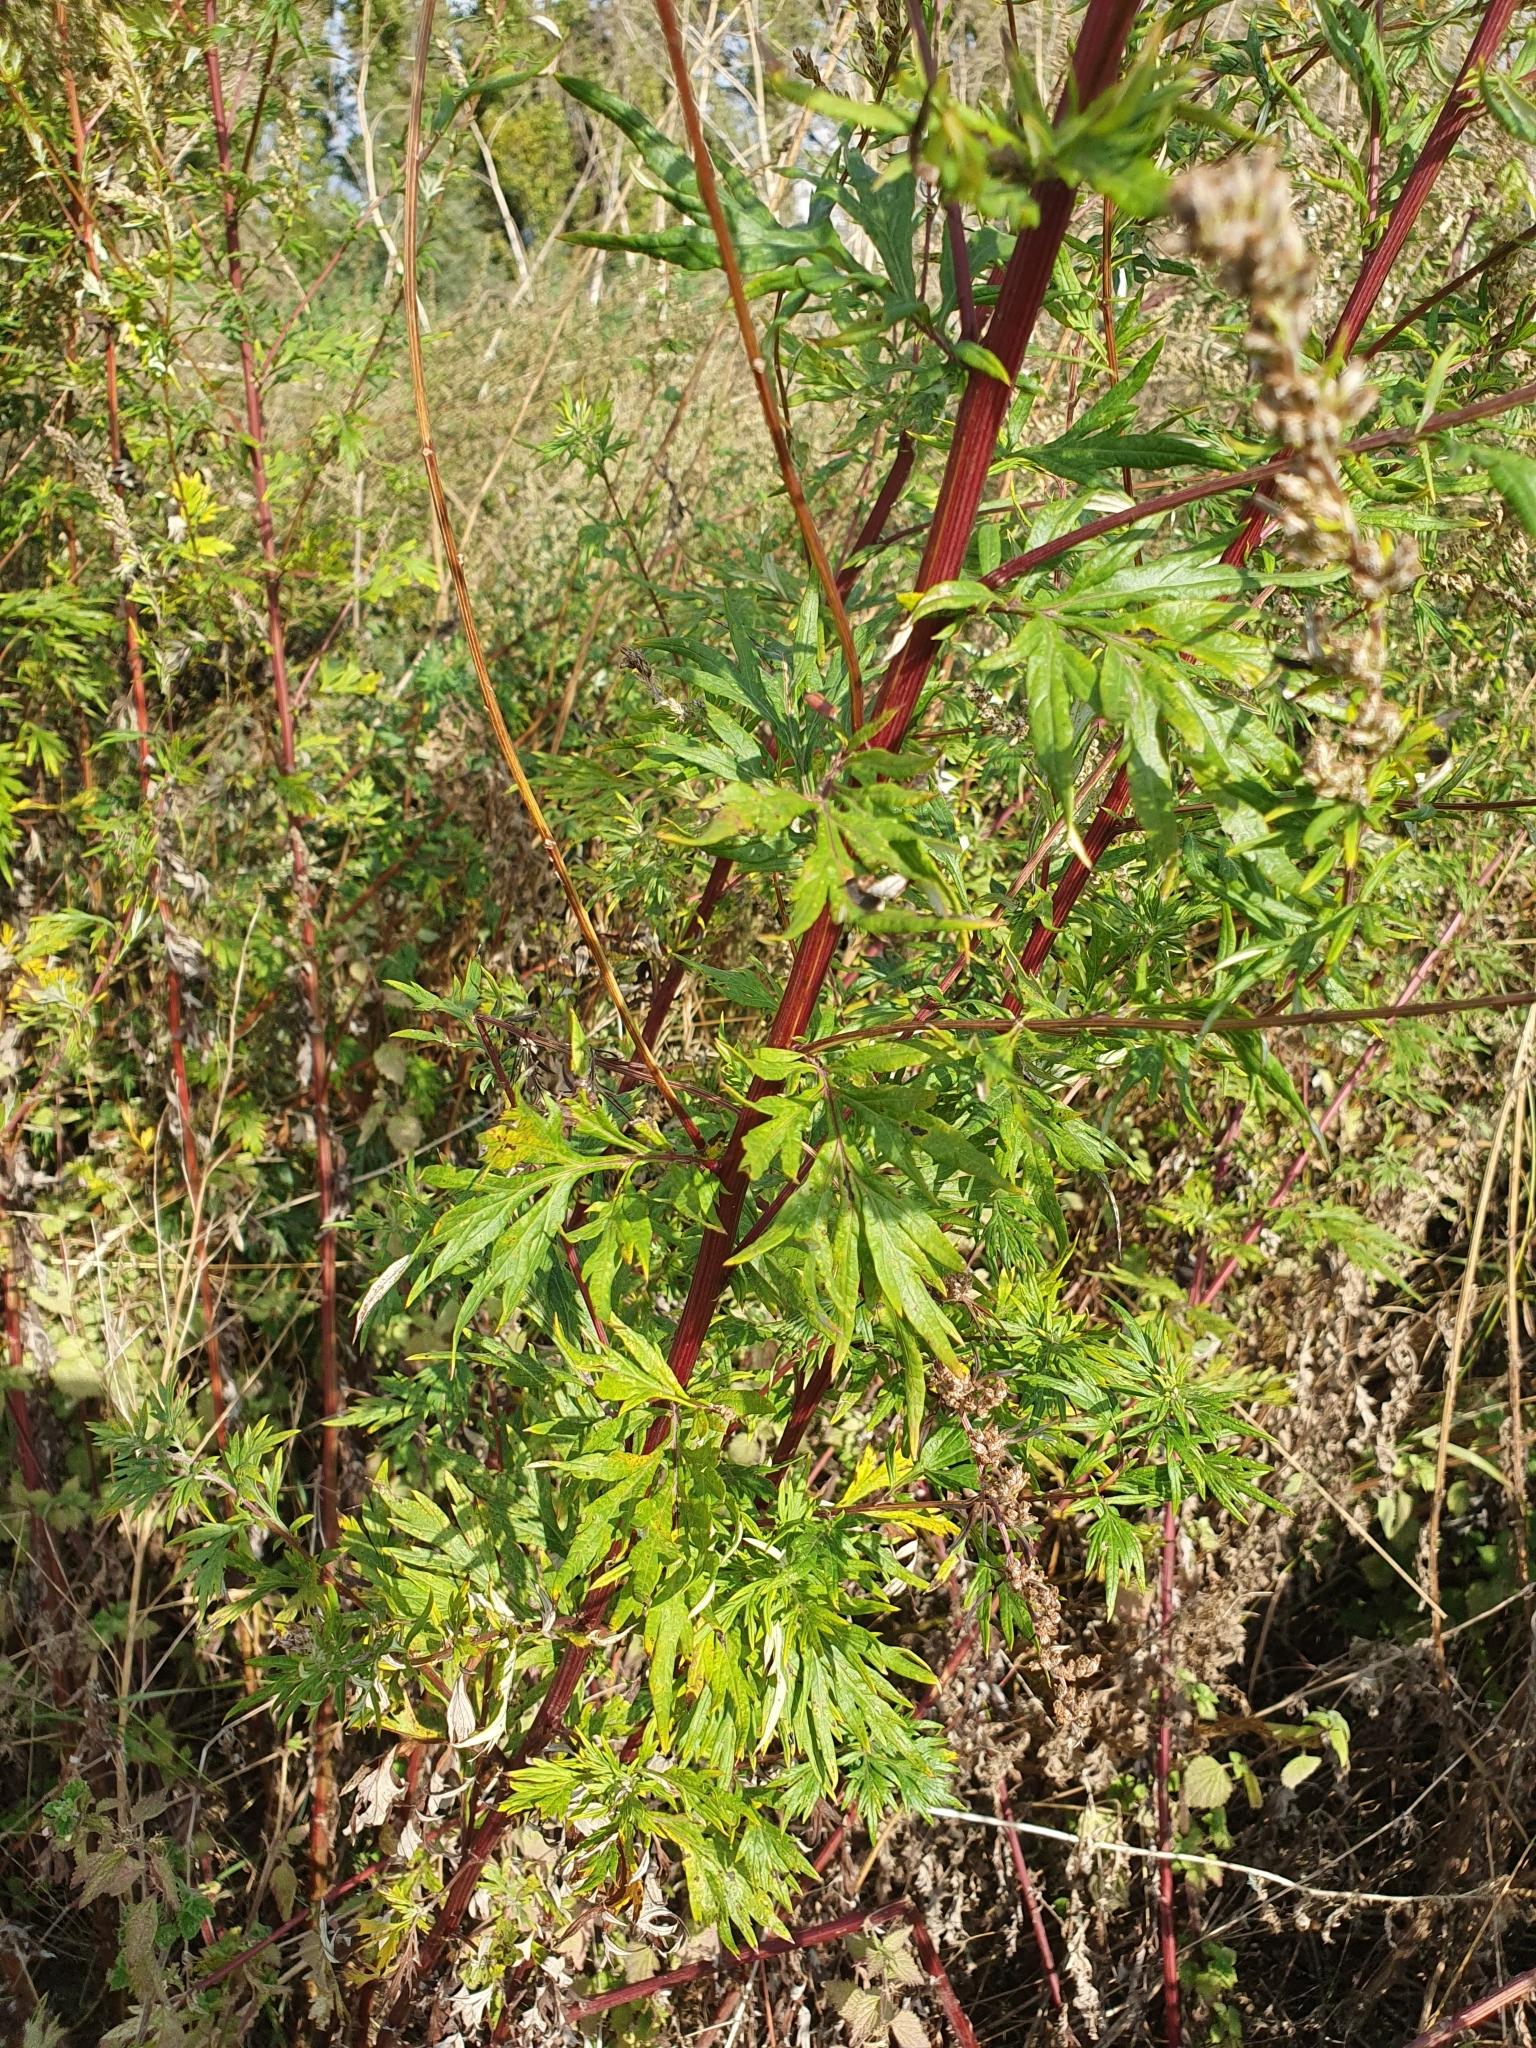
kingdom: Plantae
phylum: Tracheophyta
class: Magnoliopsida
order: Asterales
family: Asteraceae
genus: Artemisia
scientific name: Artemisia vulgaris
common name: Mugwort
